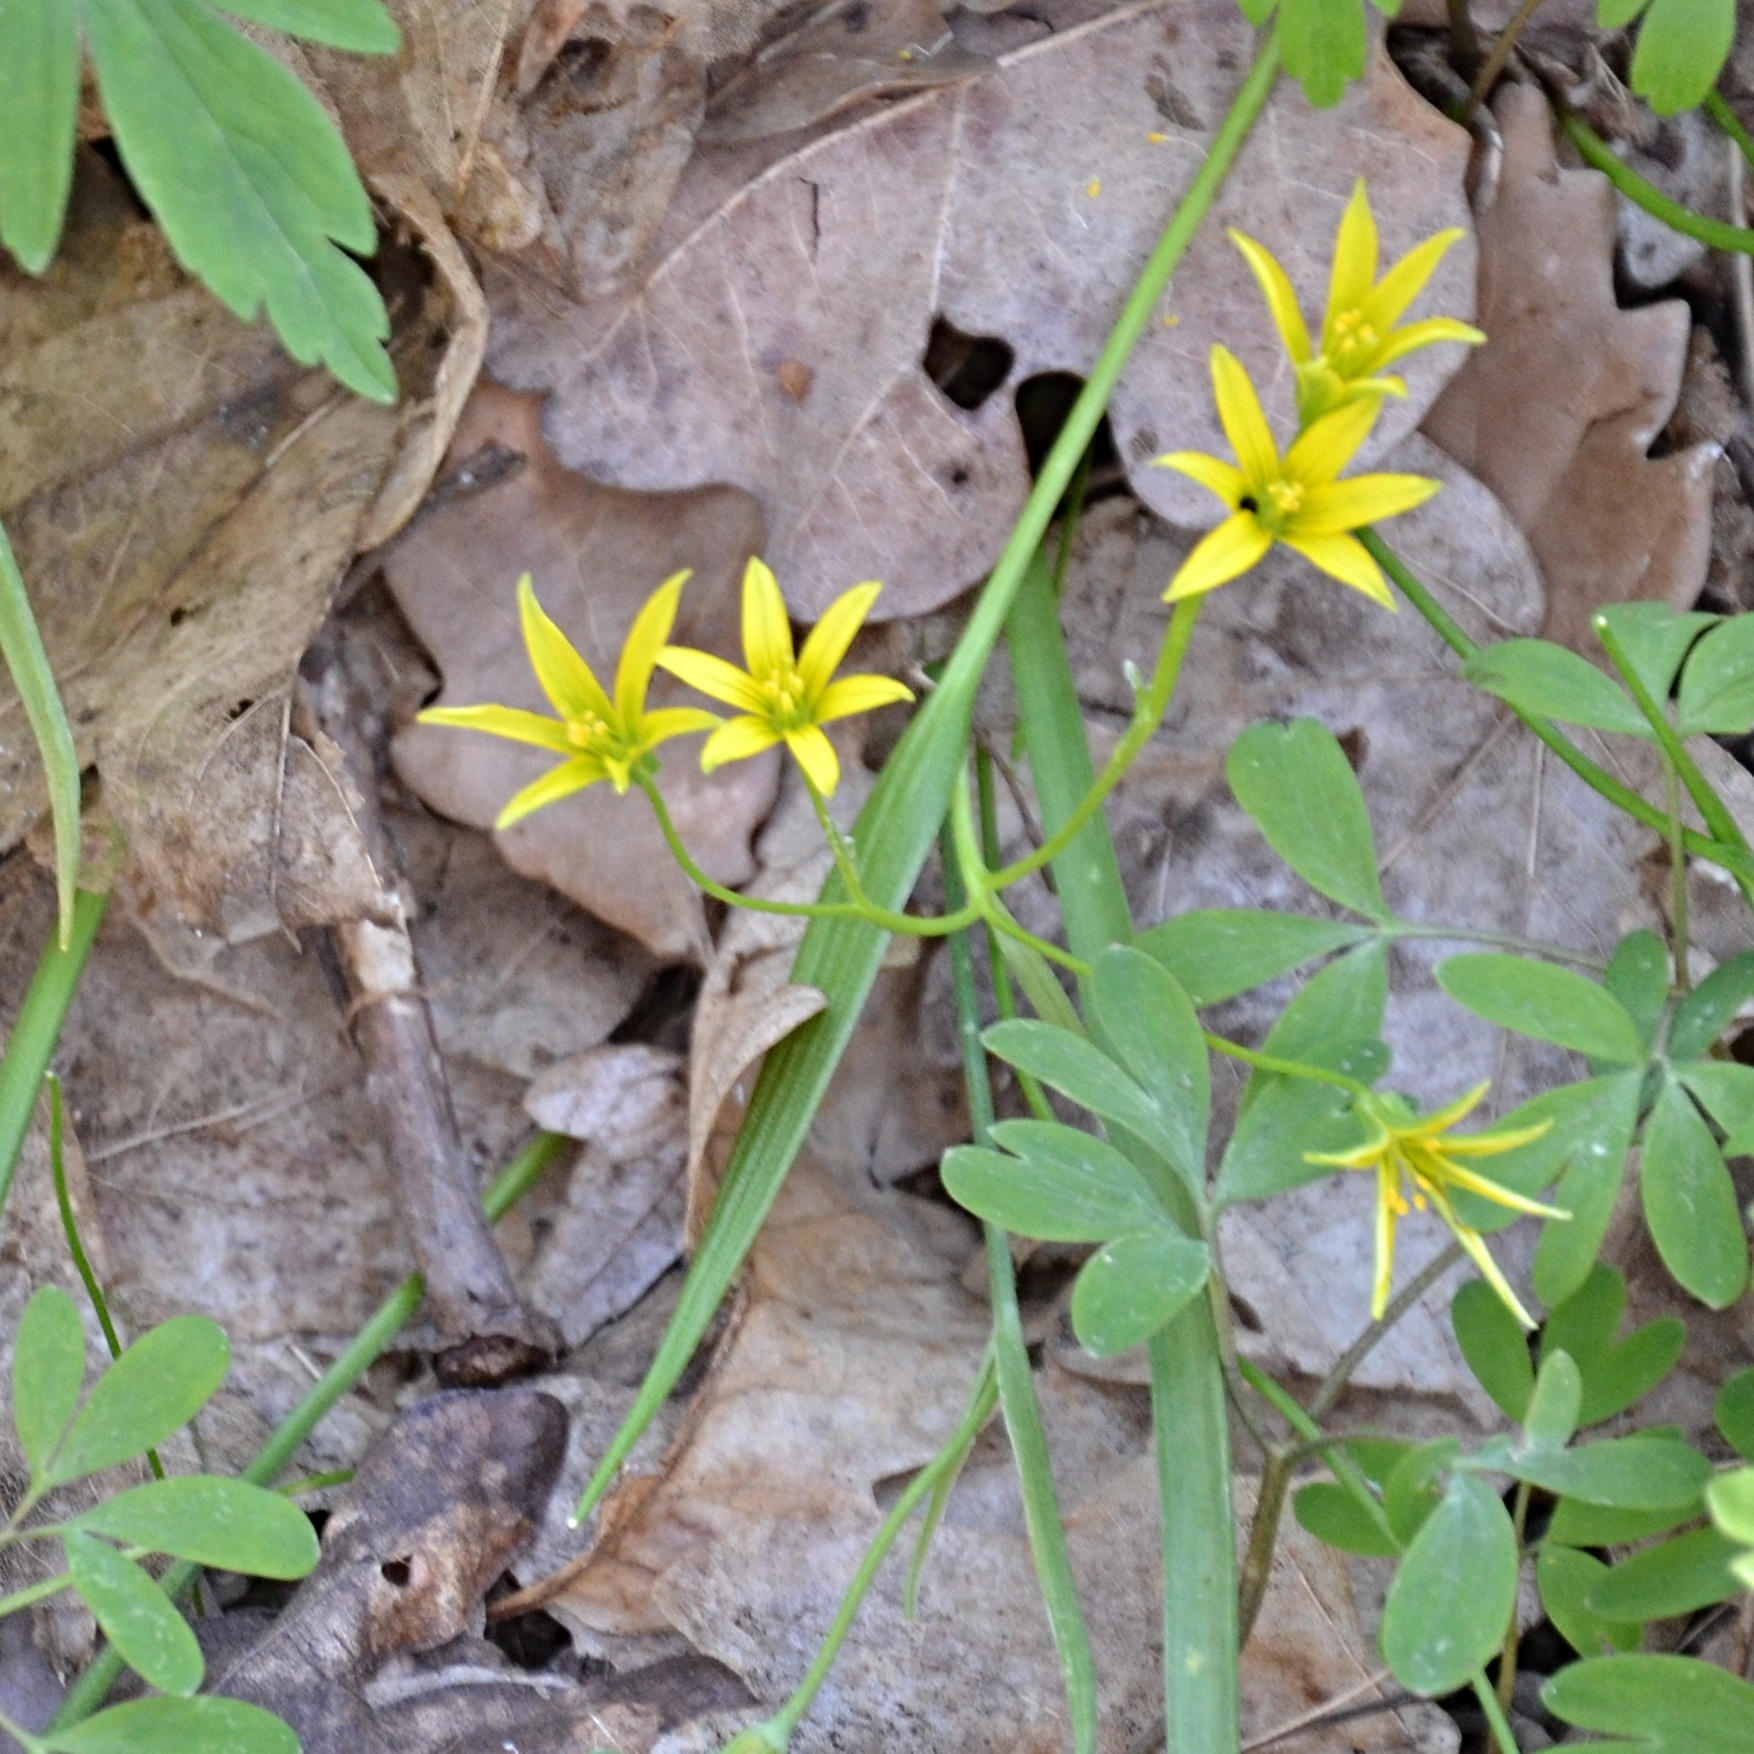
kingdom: Plantae
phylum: Tracheophyta
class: Liliopsida
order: Liliales
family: Liliaceae
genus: Gagea
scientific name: Gagea minima
